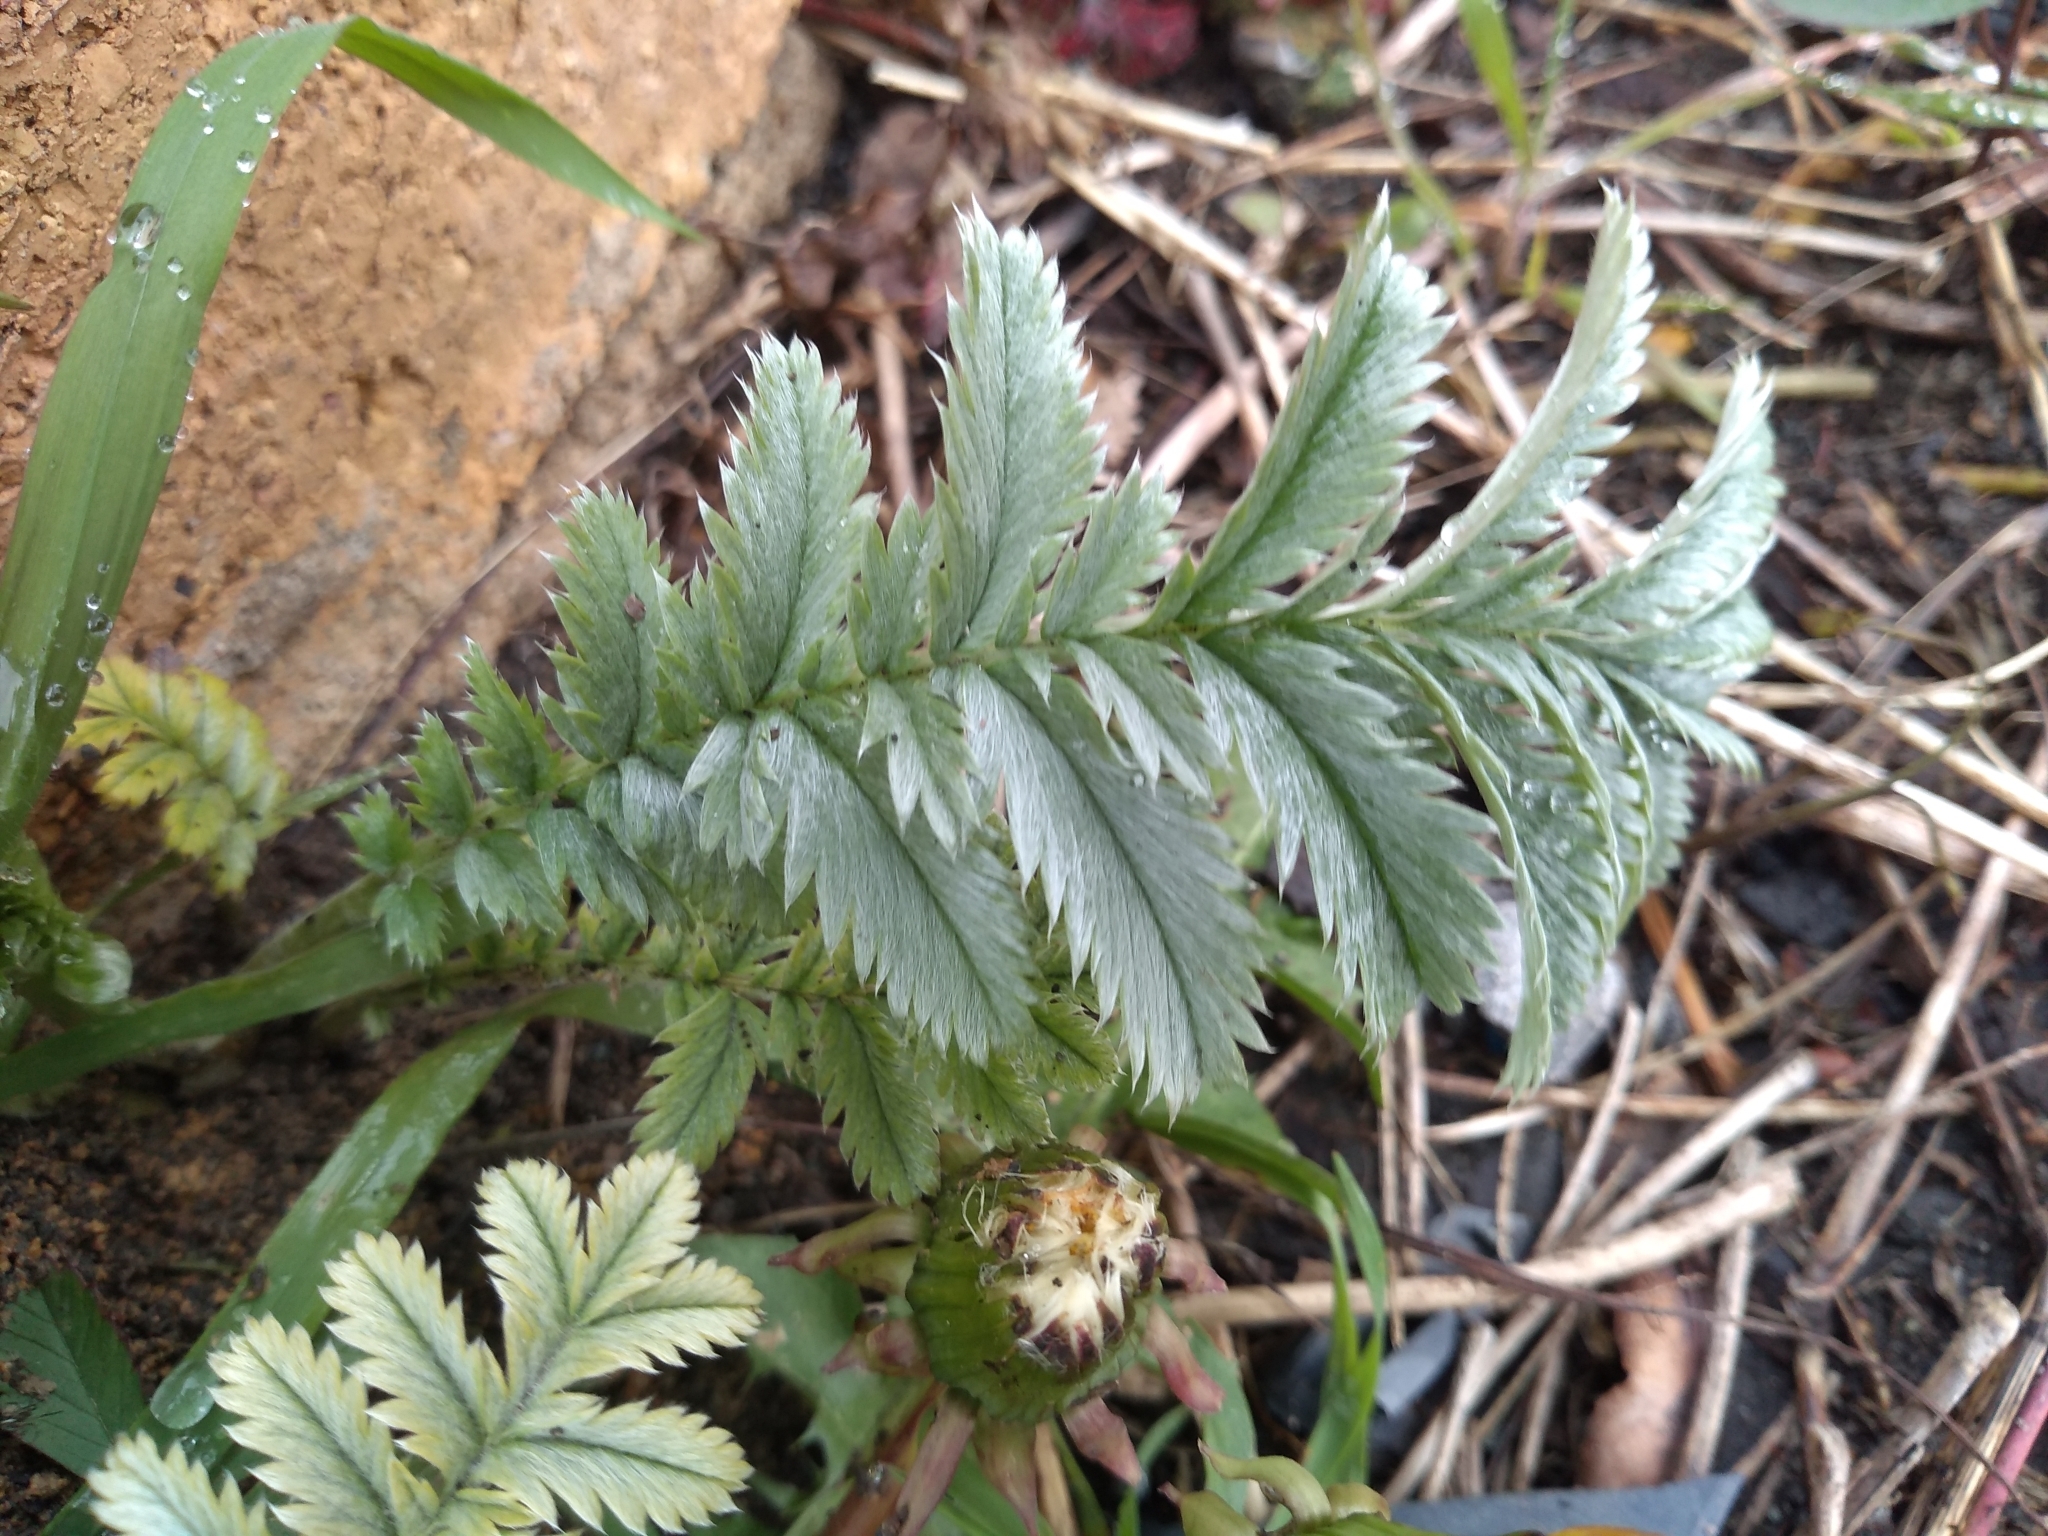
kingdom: Plantae
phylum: Tracheophyta
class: Magnoliopsida
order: Rosales
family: Rosaceae
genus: Argentina
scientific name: Argentina anserina
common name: Common silverweed
